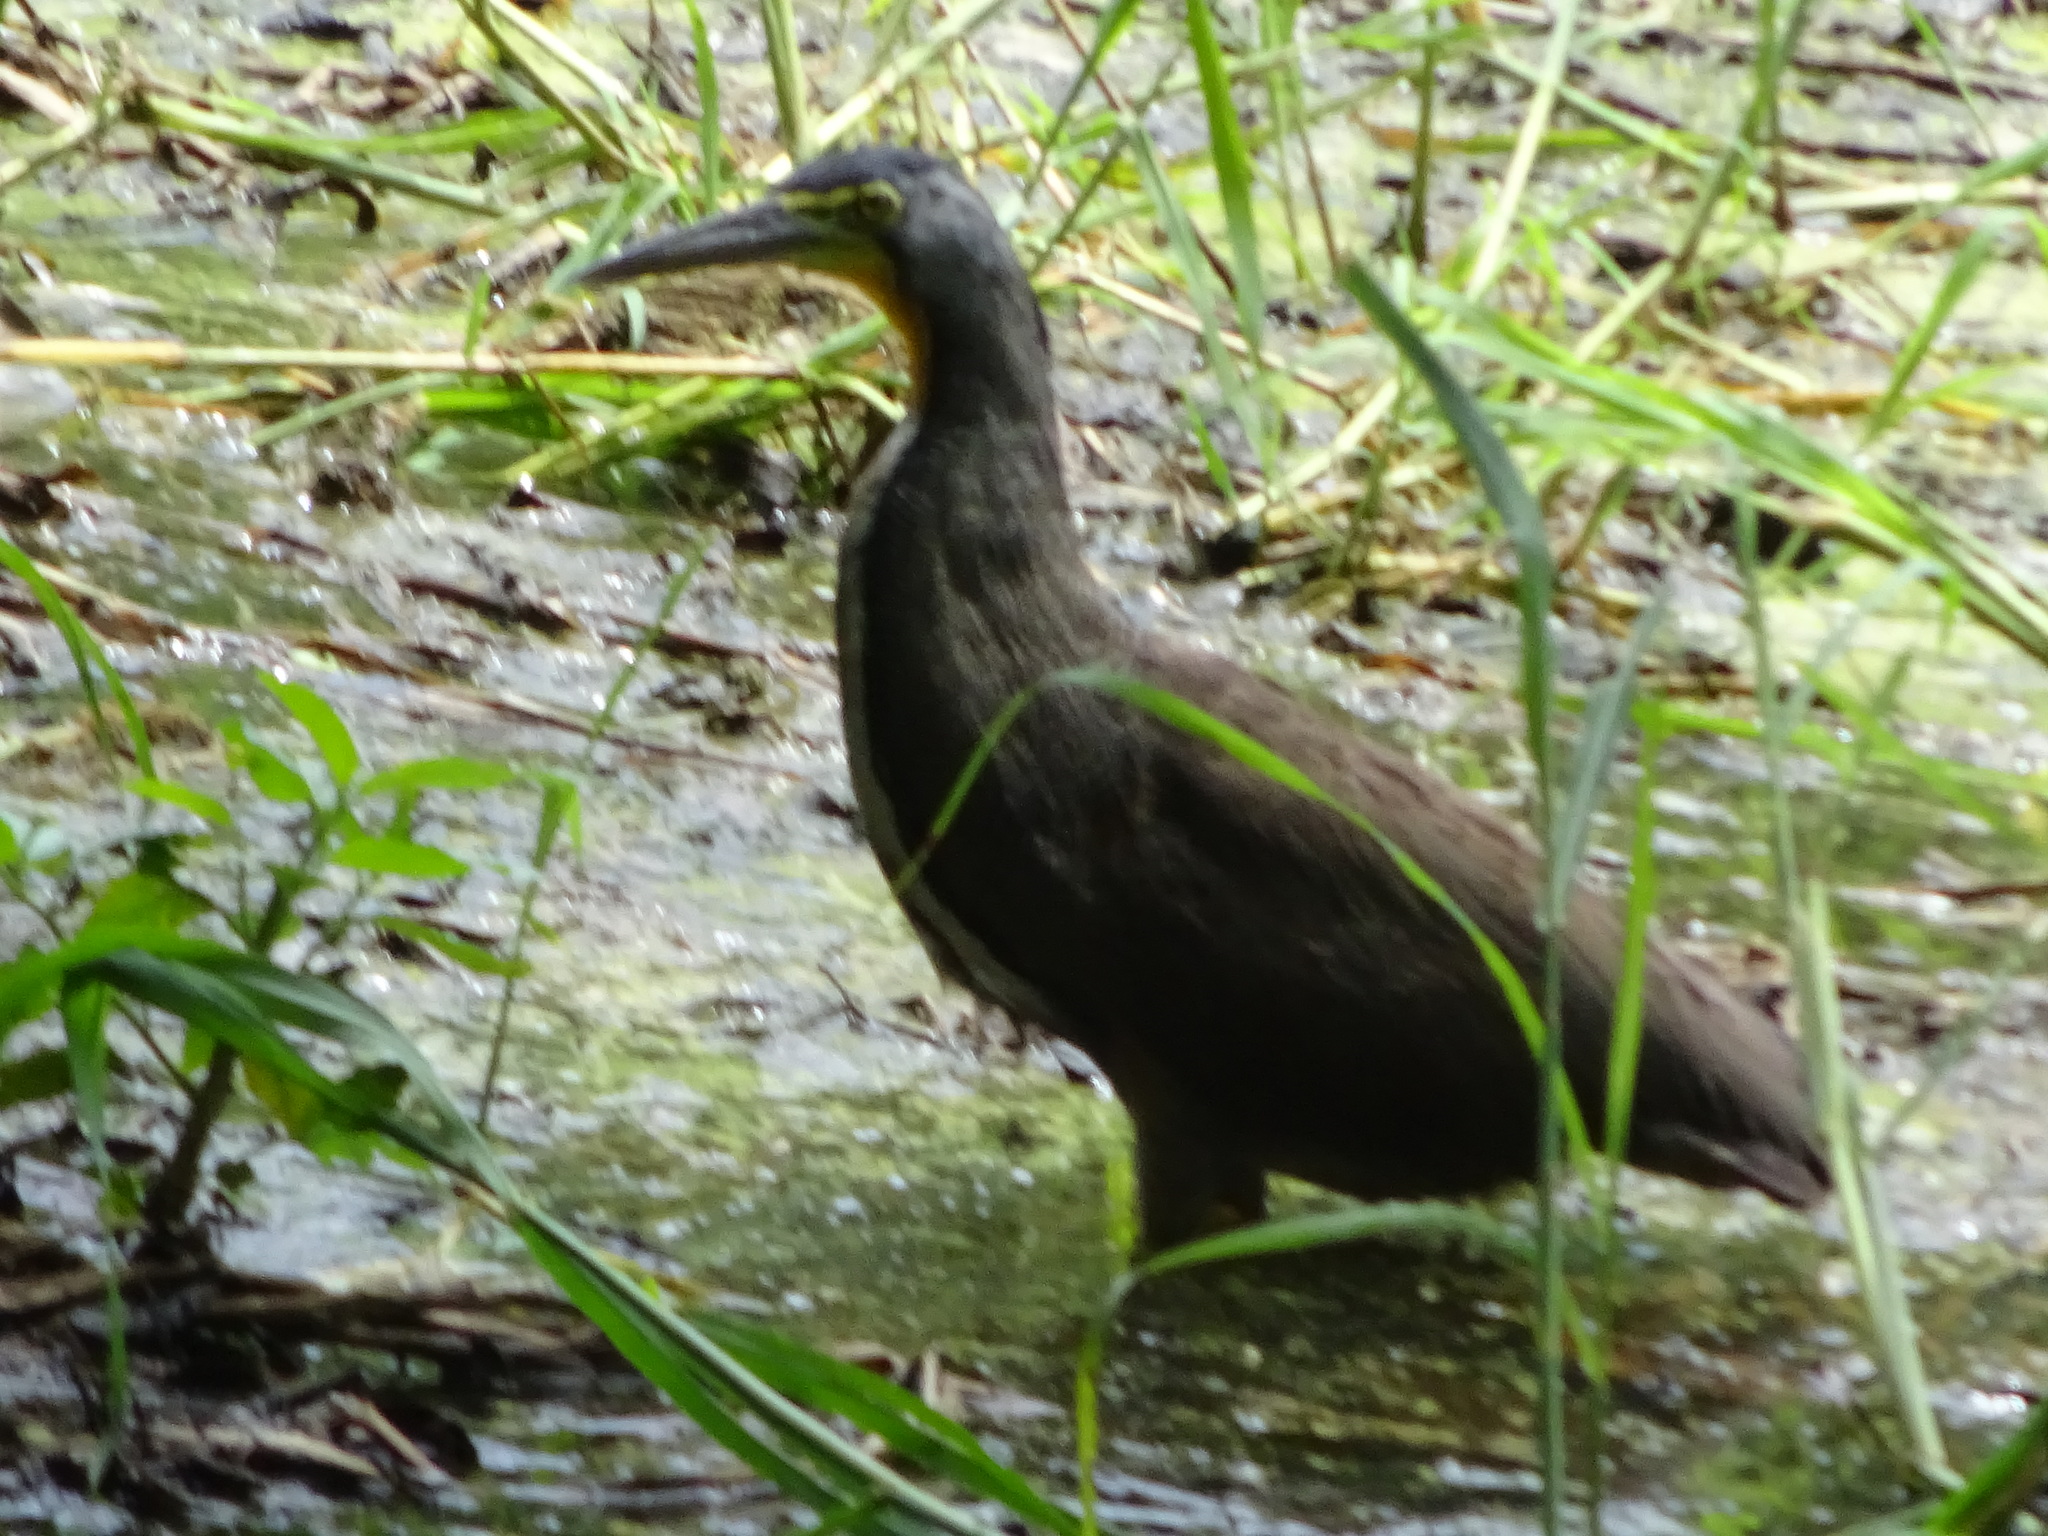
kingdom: Animalia
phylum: Chordata
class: Aves
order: Pelecaniformes
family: Ardeidae
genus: Tigrisoma
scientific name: Tigrisoma mexicanum
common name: Bare-throated tiger-heron
